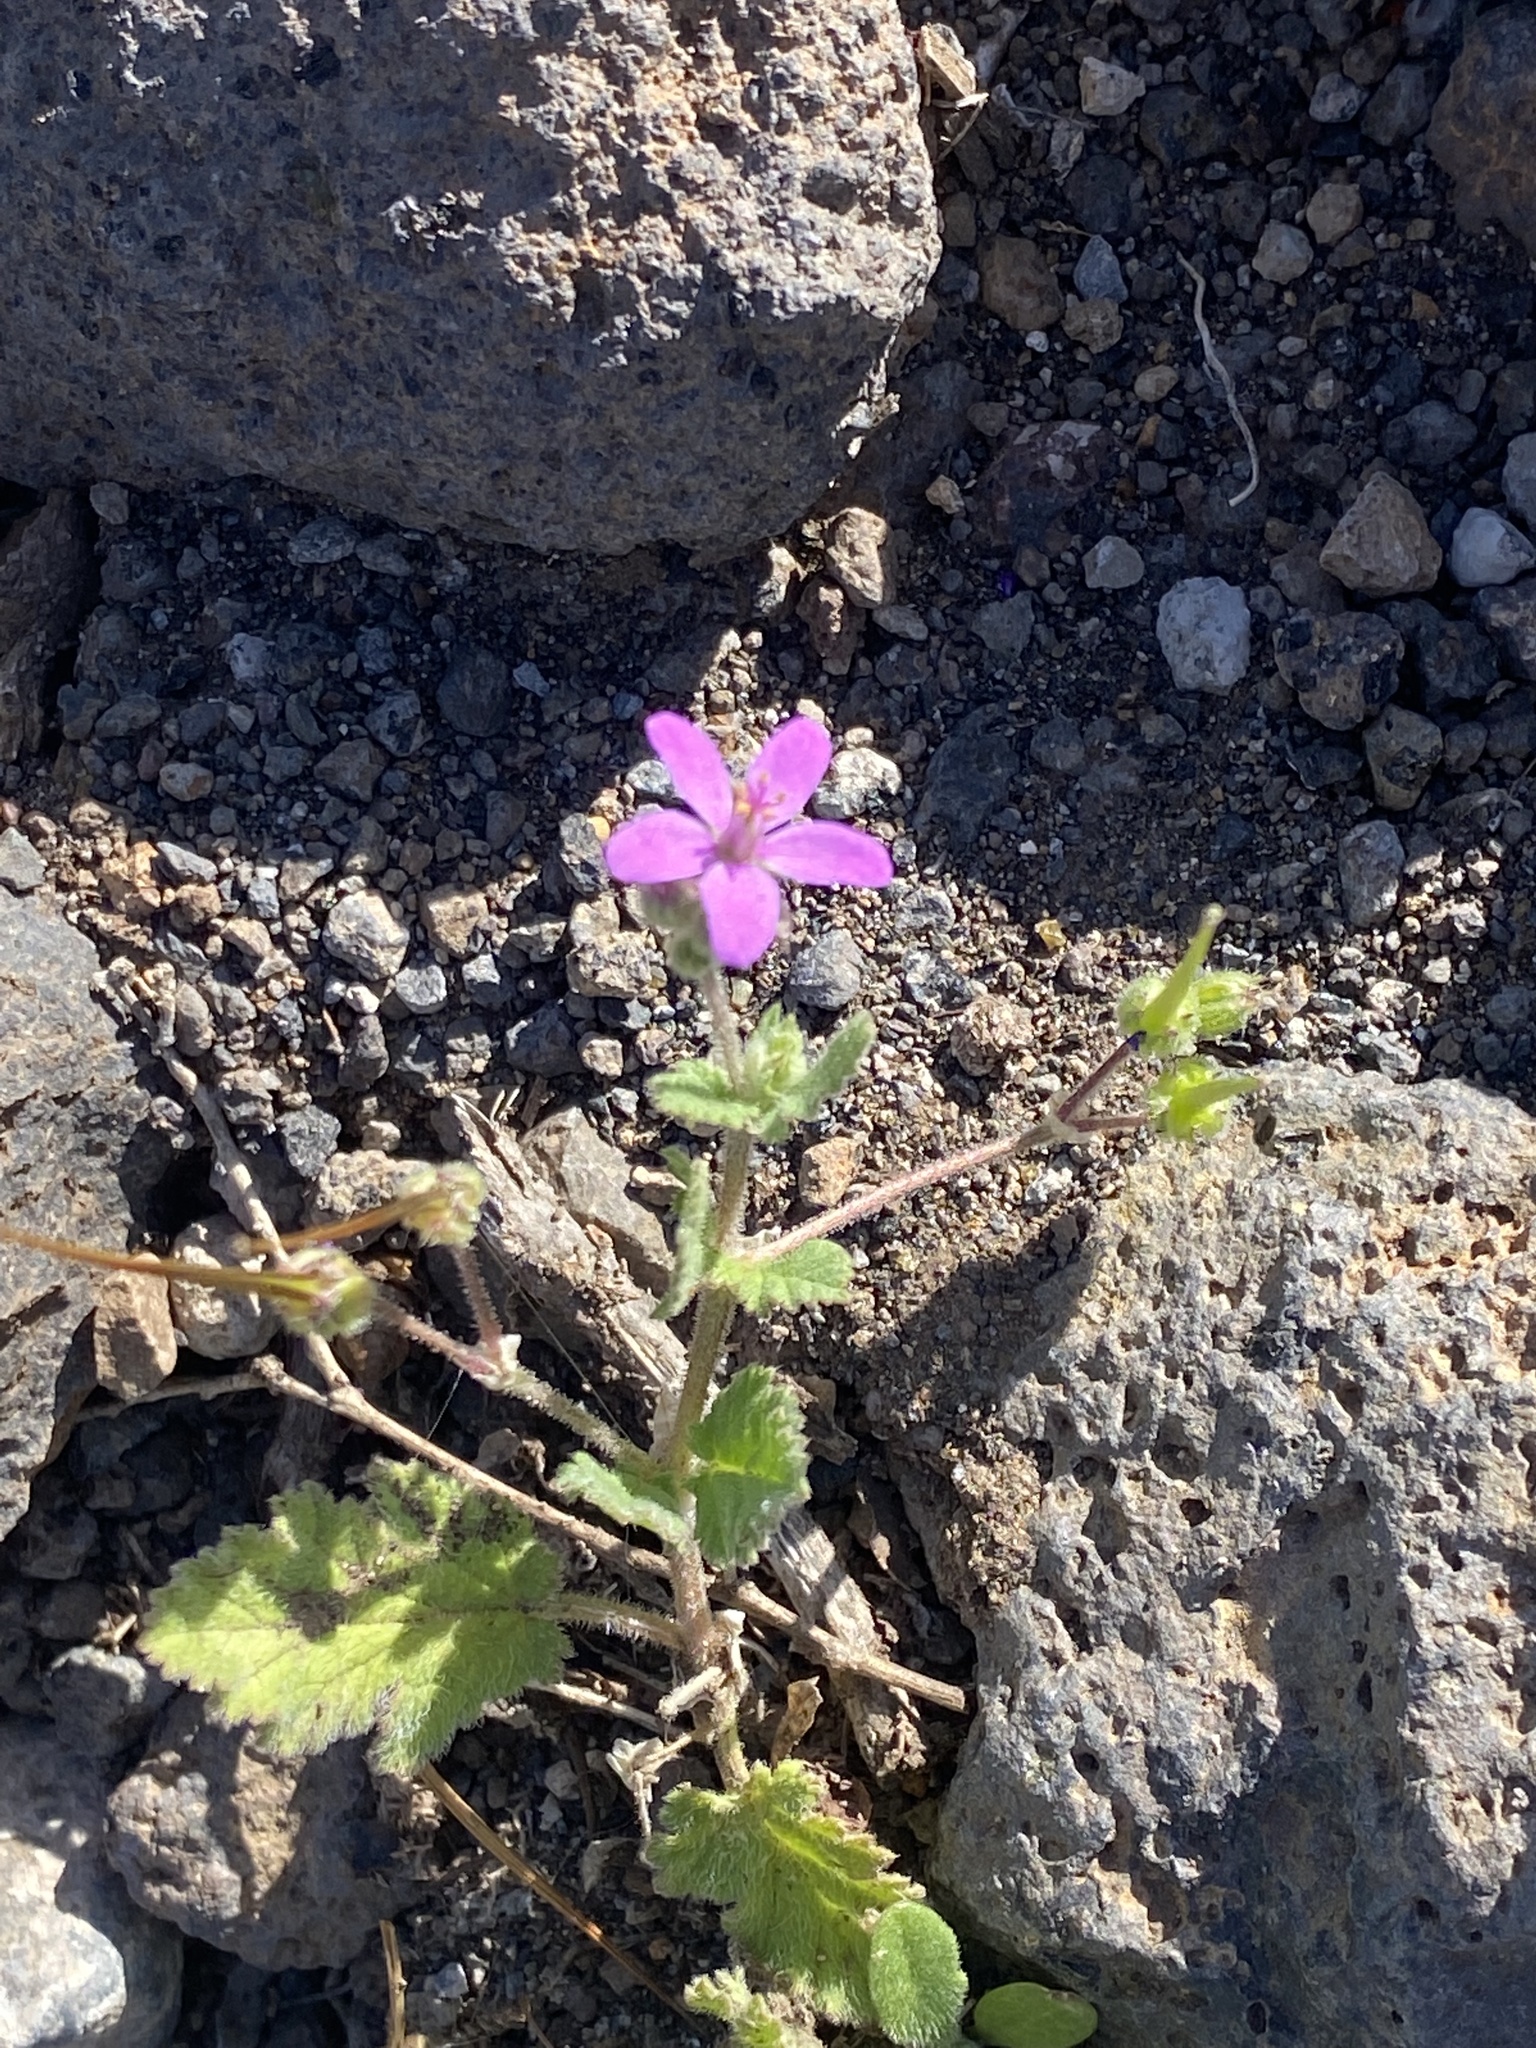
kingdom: Plantae
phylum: Tracheophyta
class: Magnoliopsida
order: Geraniales
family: Geraniaceae
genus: Erodium
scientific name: Erodium malacoides
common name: Soft stork's-bill
